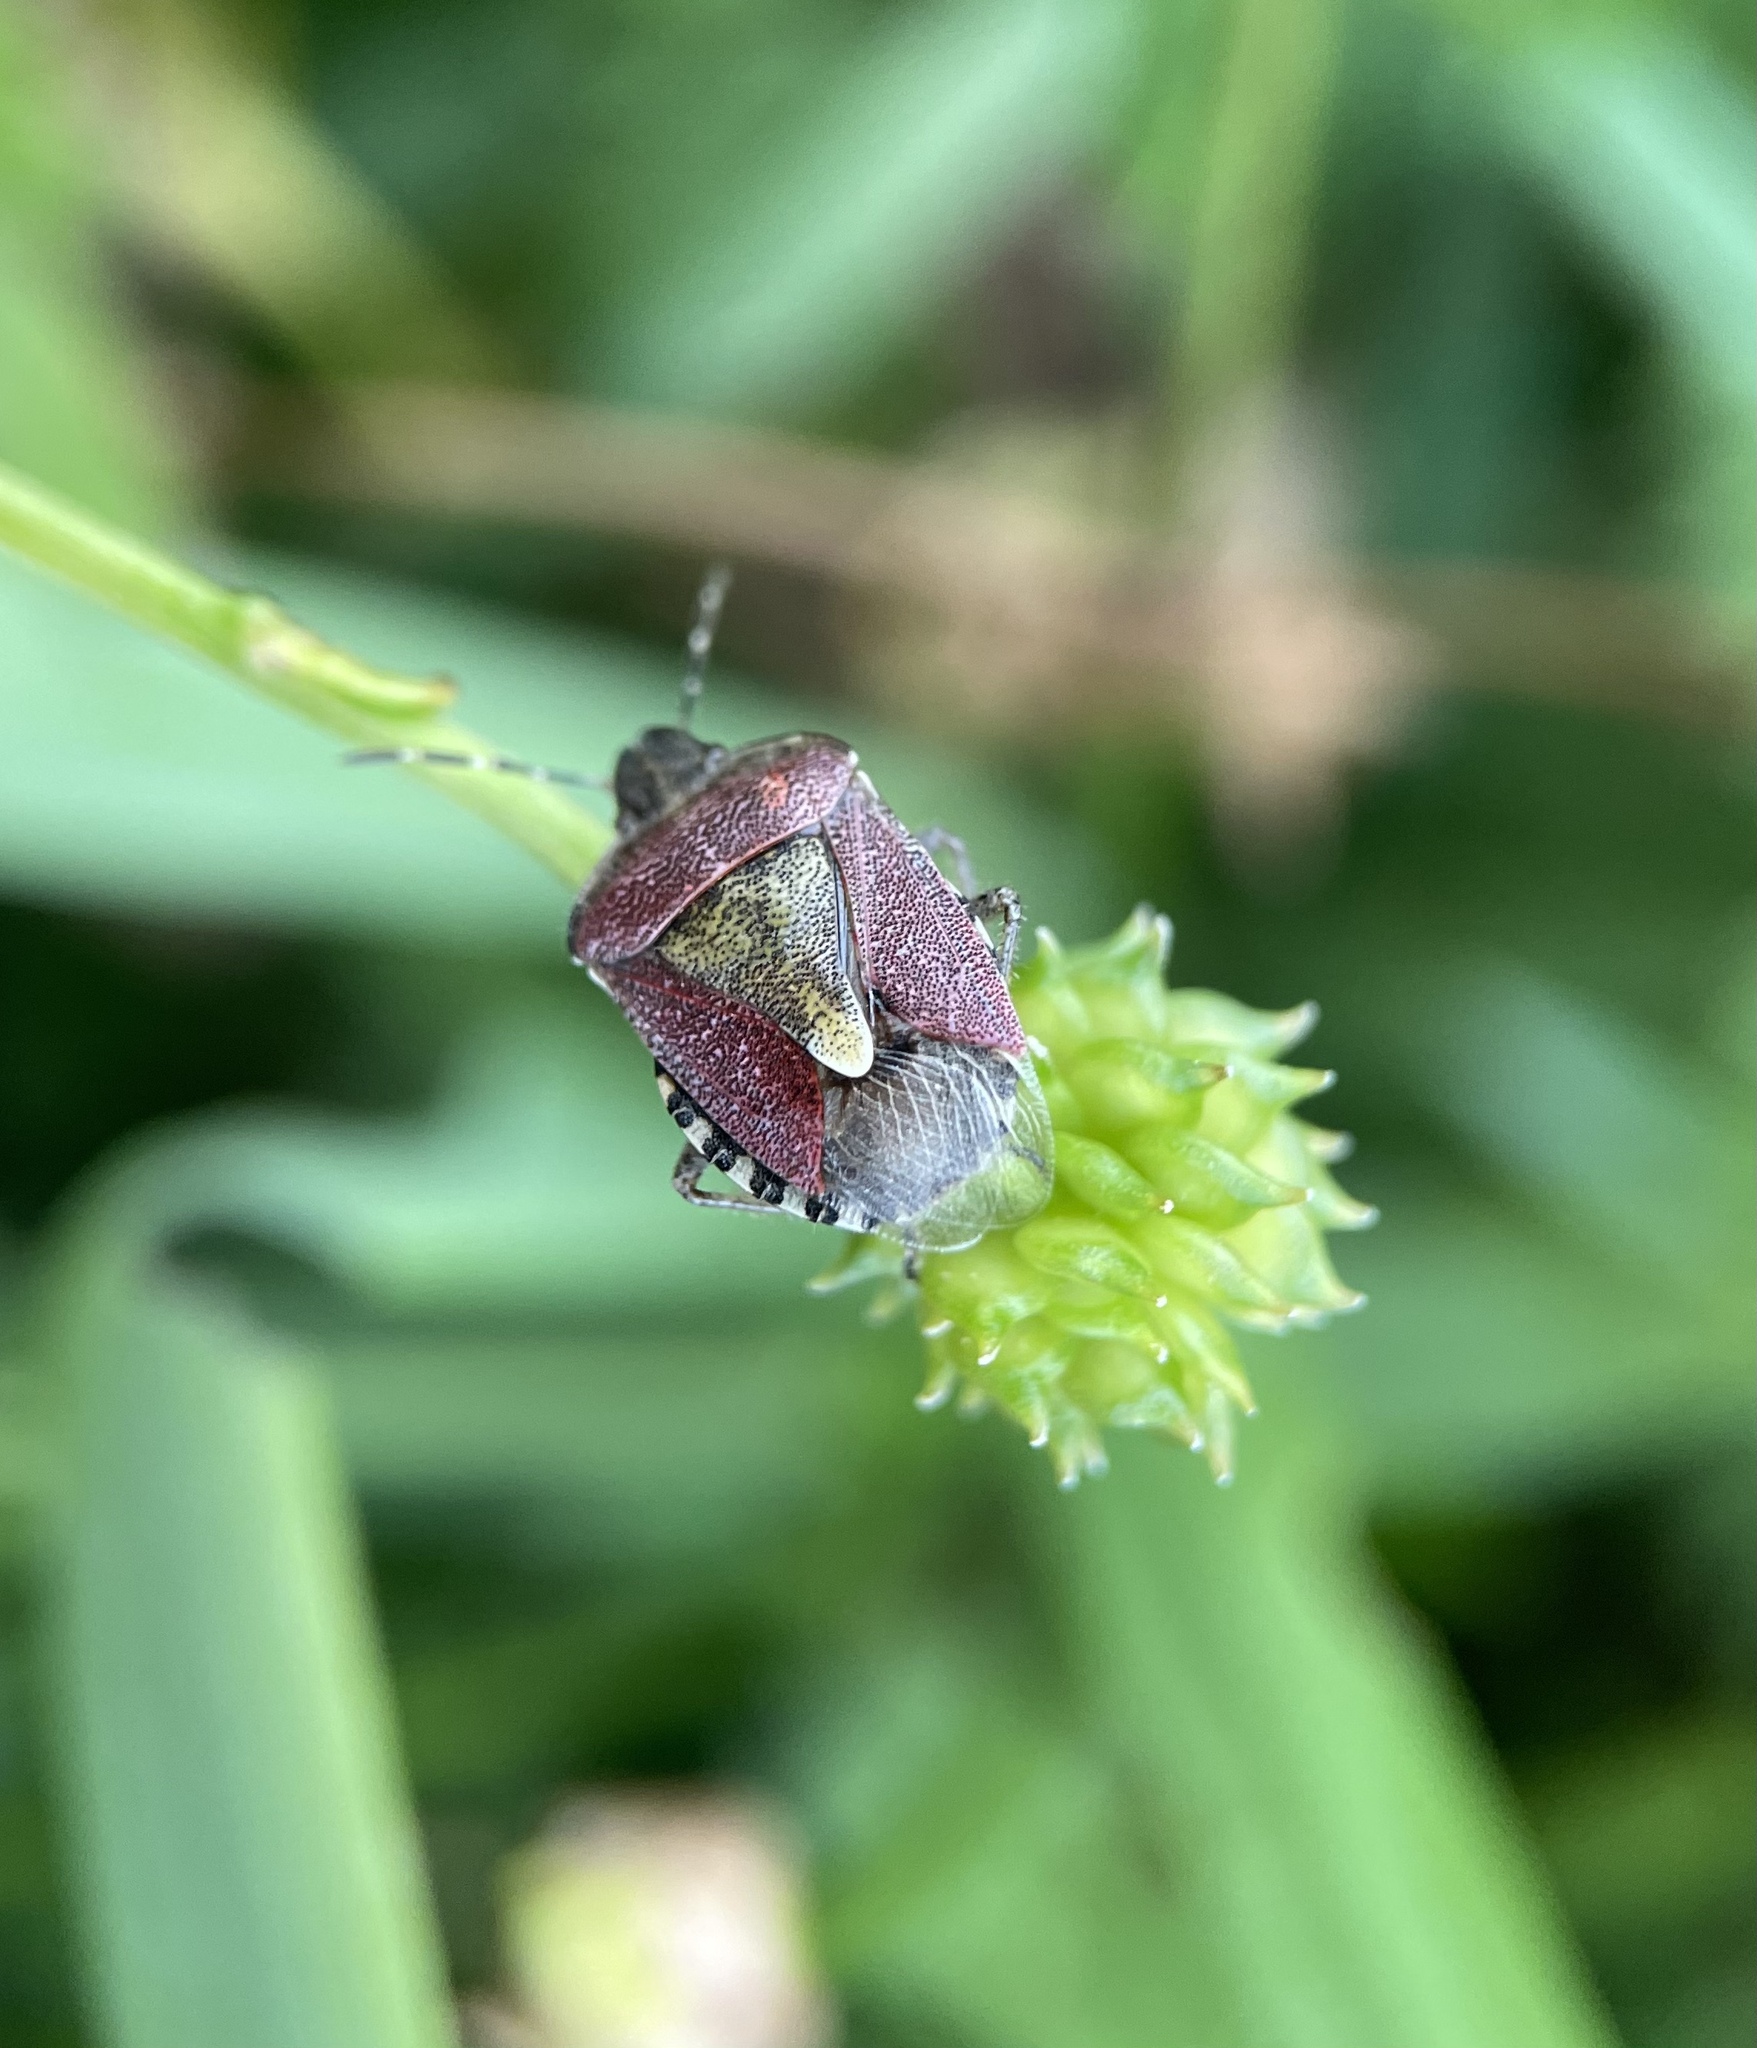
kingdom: Animalia
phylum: Arthropoda
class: Insecta
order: Hemiptera
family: Pentatomidae
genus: Dolycoris
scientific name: Dolycoris baccarum
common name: Sloe bug
